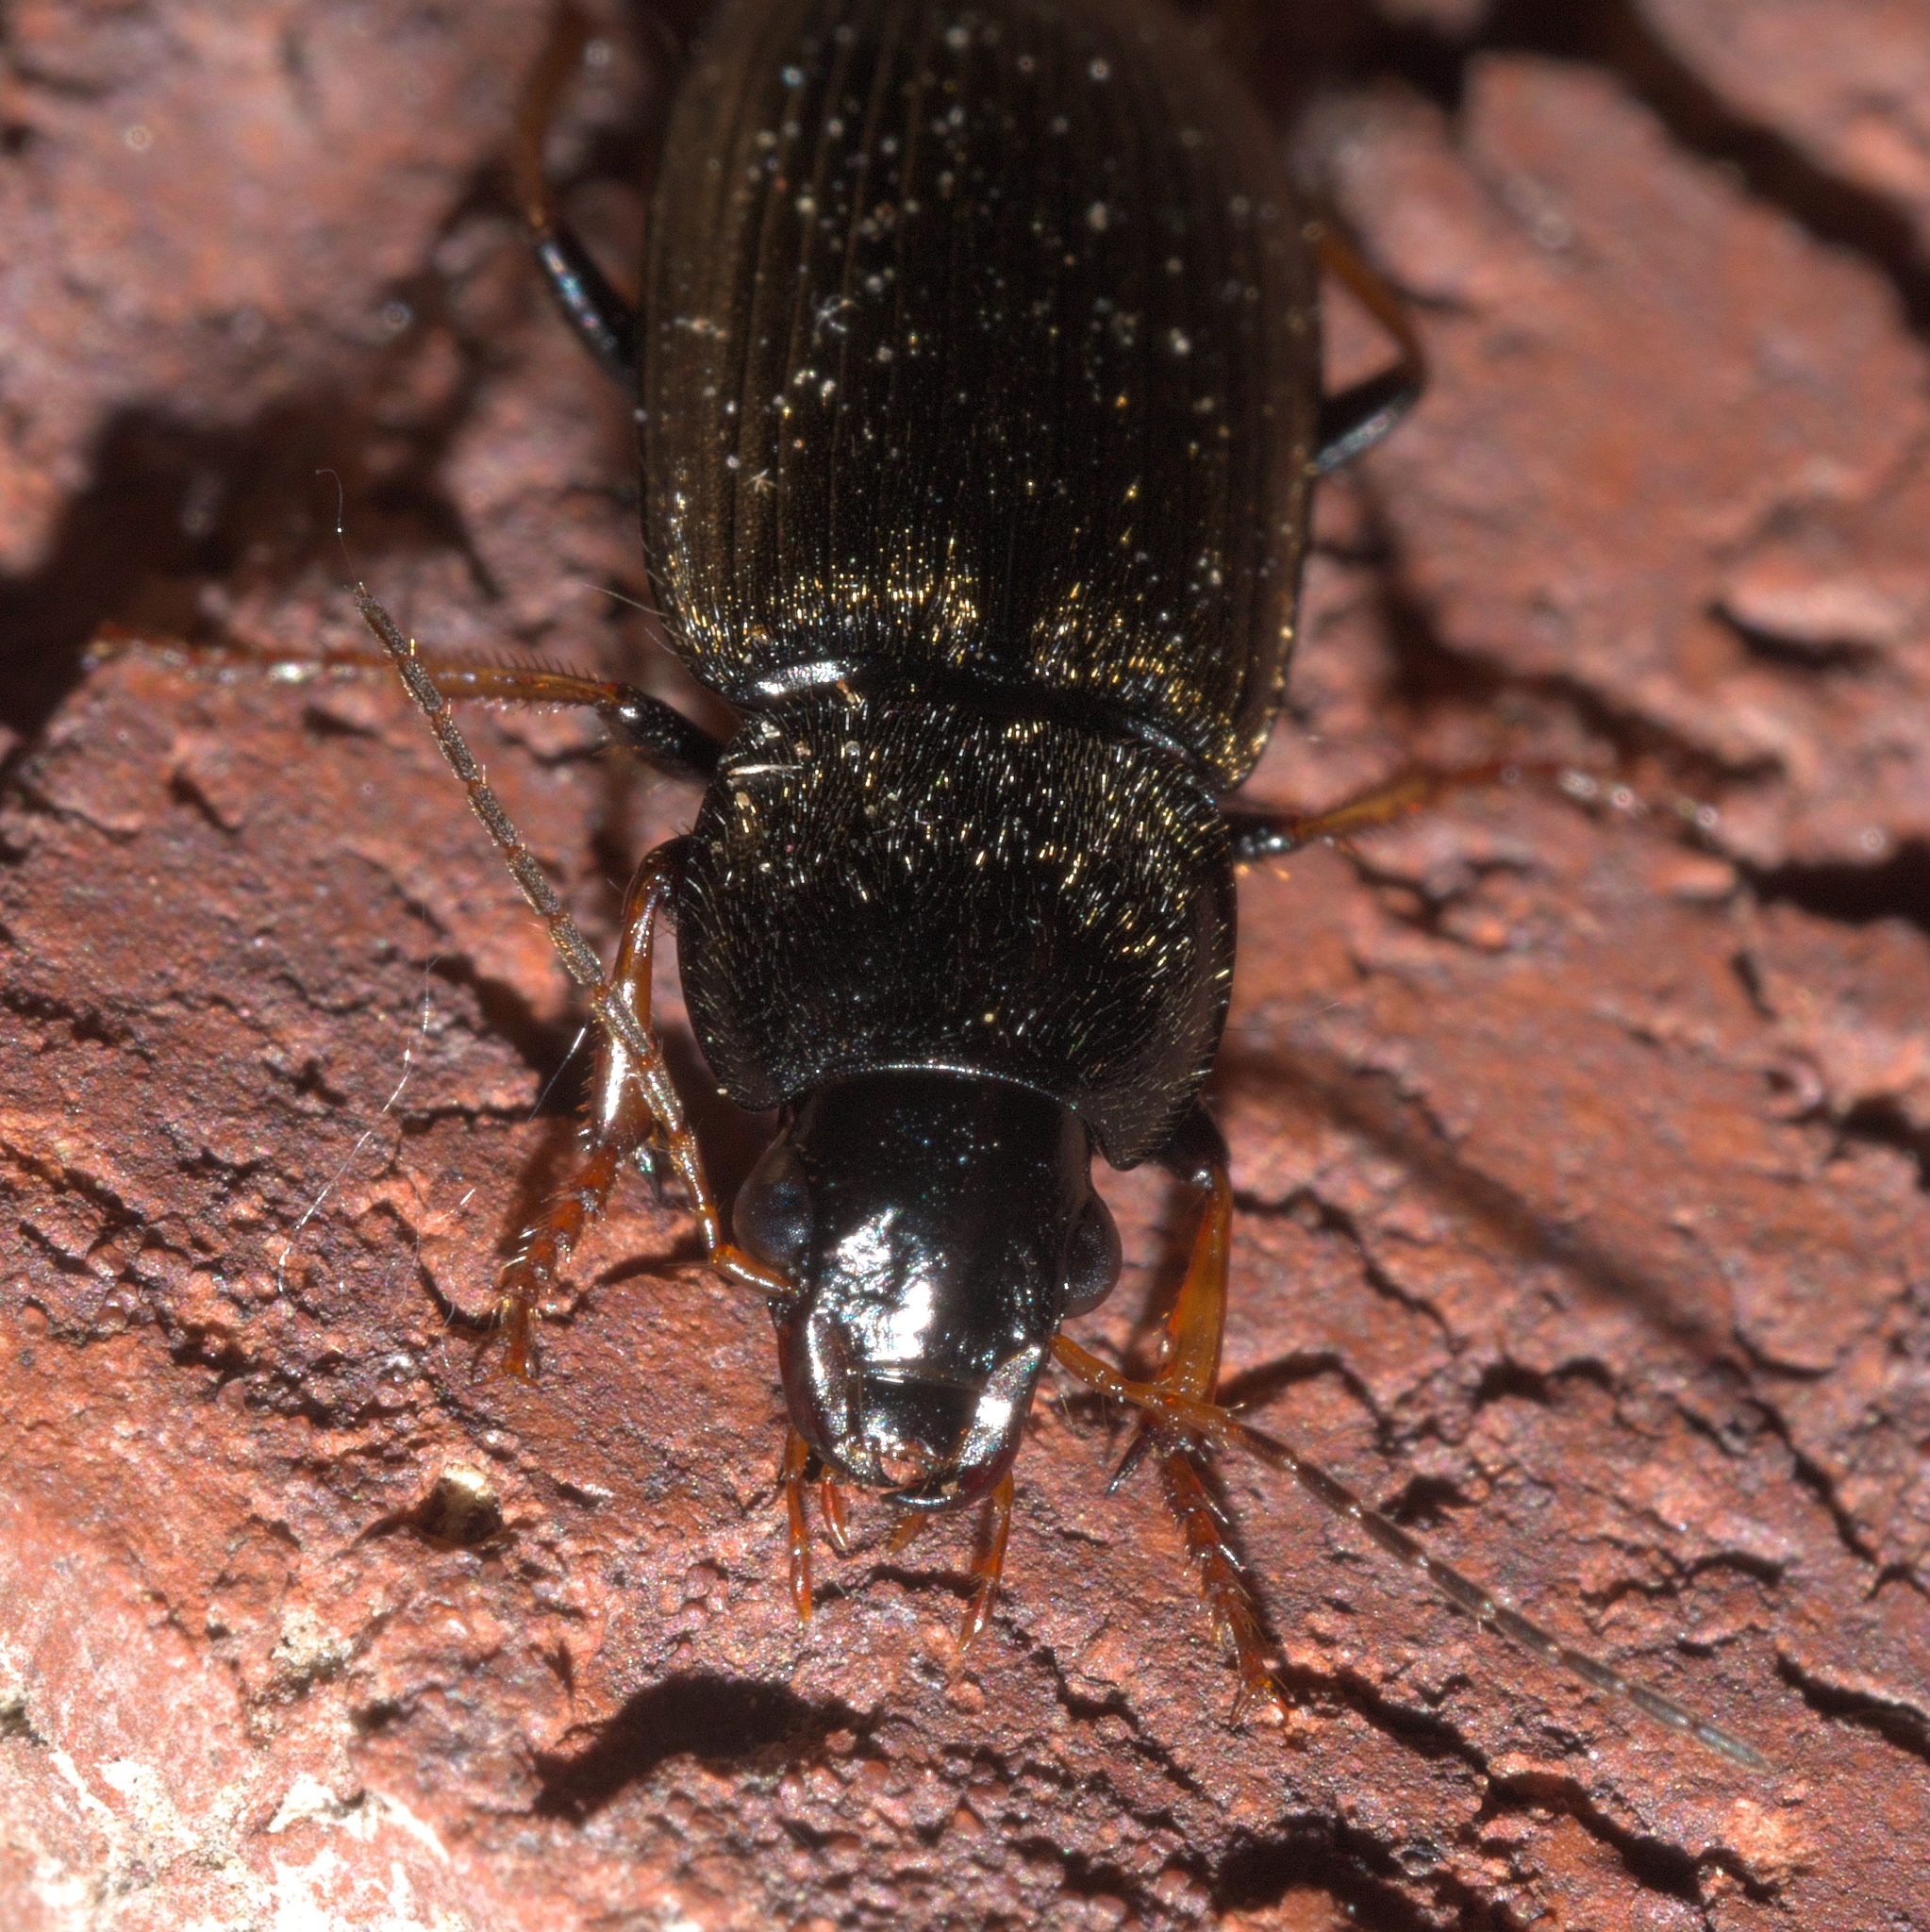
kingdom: Animalia
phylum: Arthropoda
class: Insecta
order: Coleoptera
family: Carabidae
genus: Amphasia
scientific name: Amphasia sericea
